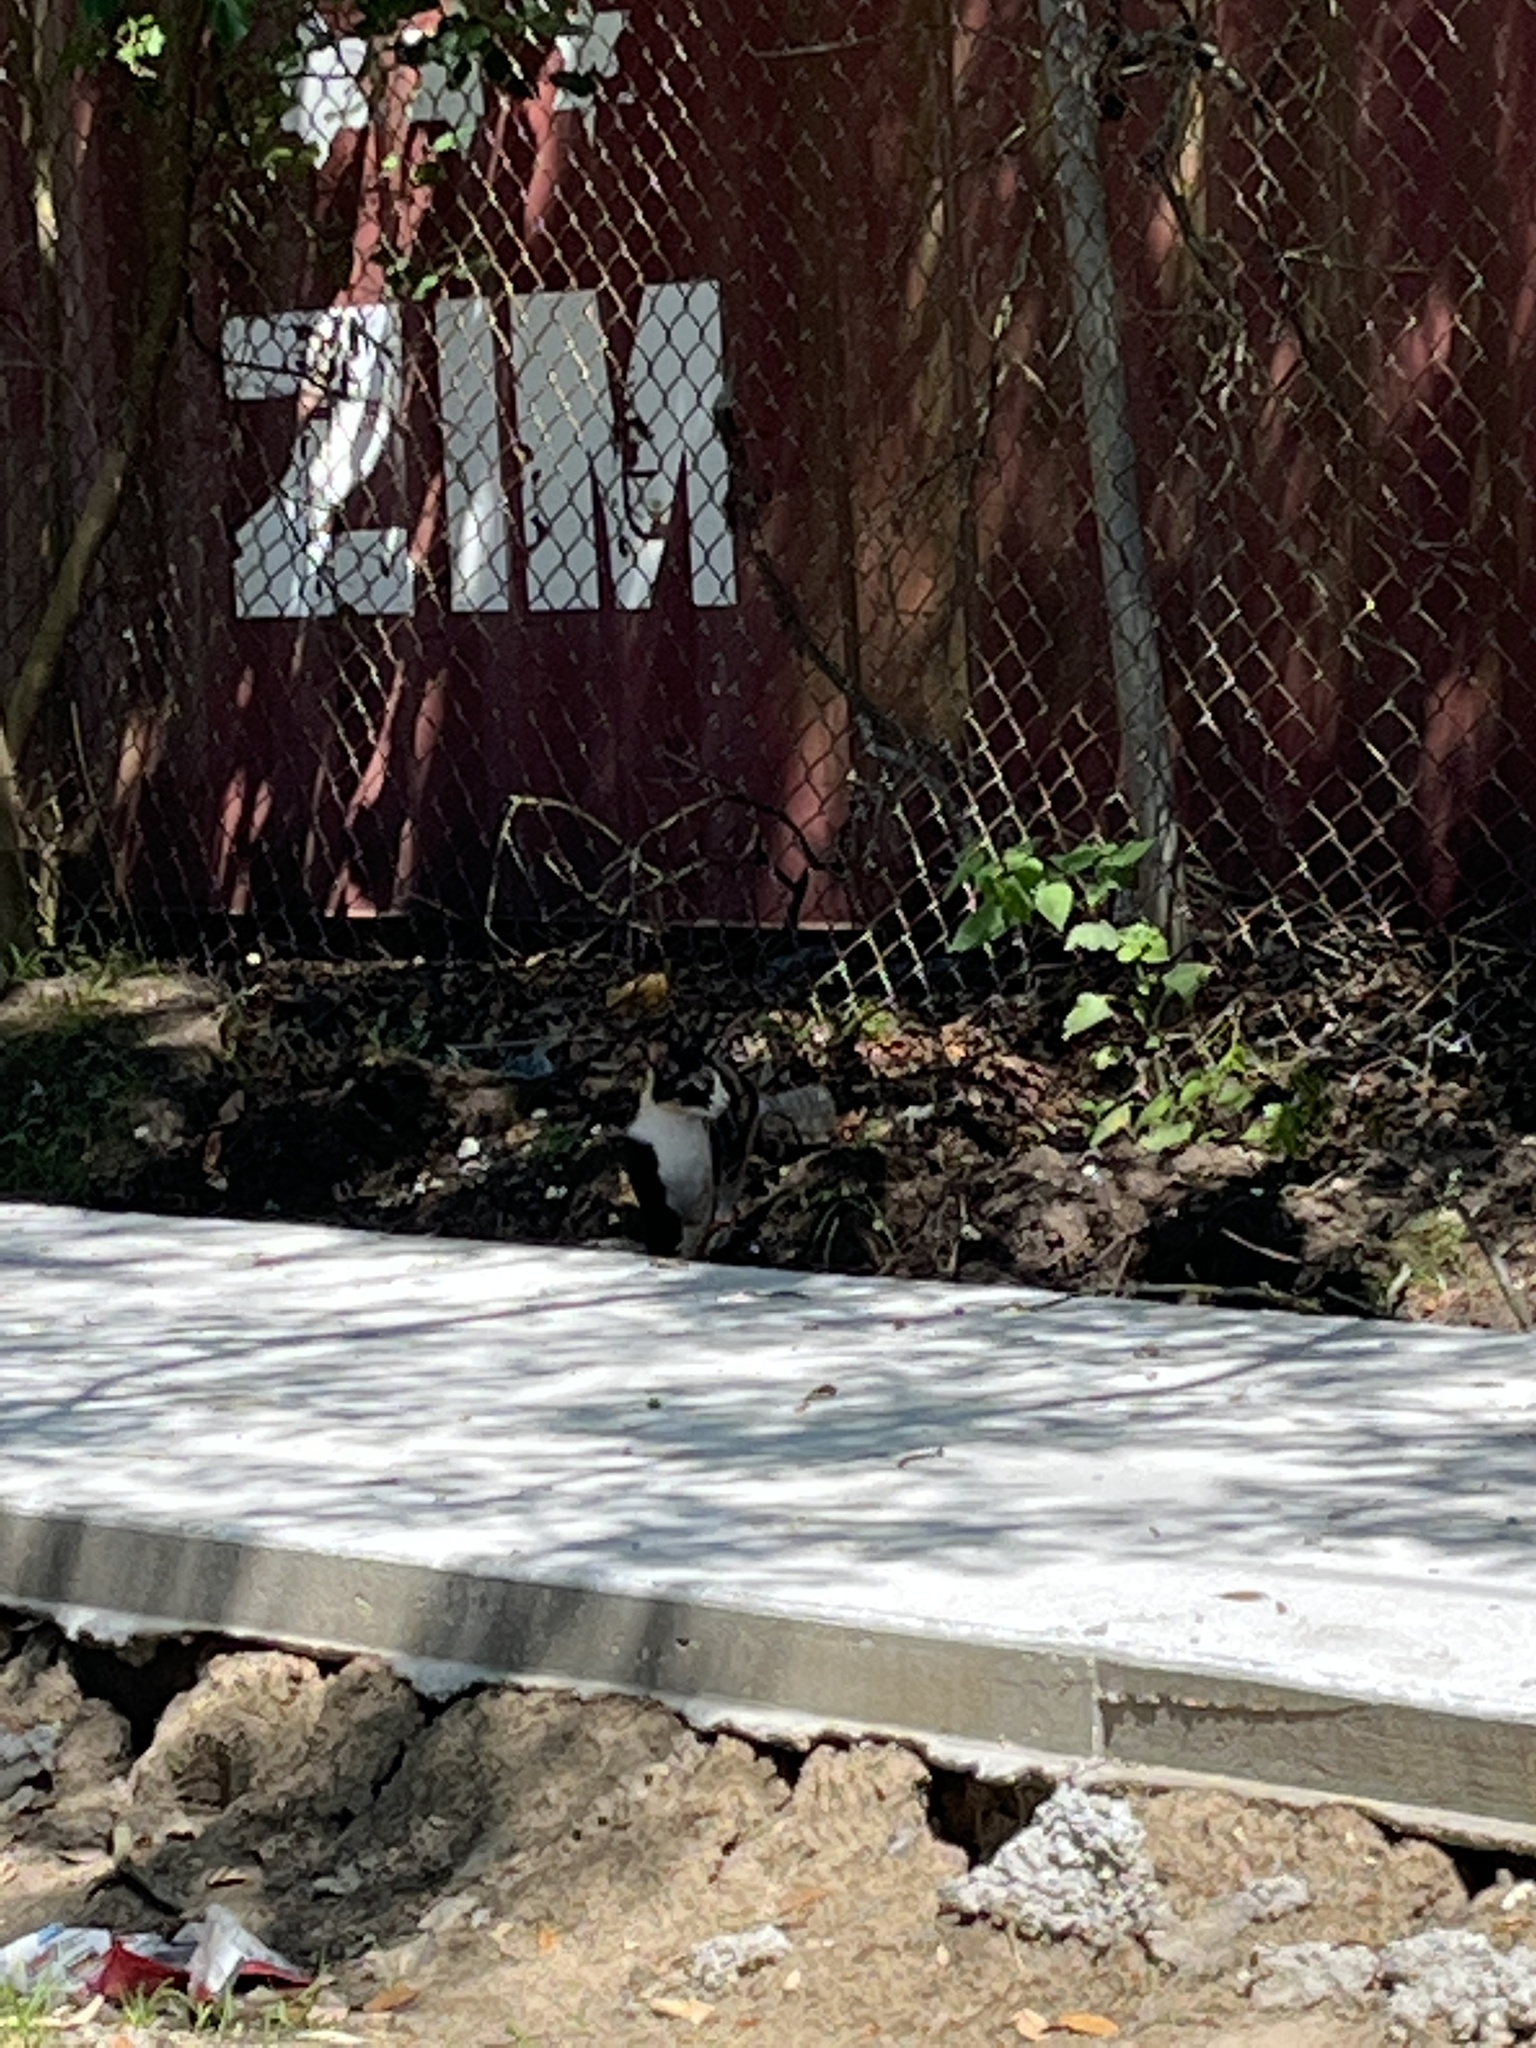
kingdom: Animalia
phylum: Chordata
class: Mammalia
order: Carnivora
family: Felidae
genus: Felis
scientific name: Felis catus
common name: Domestic cat
